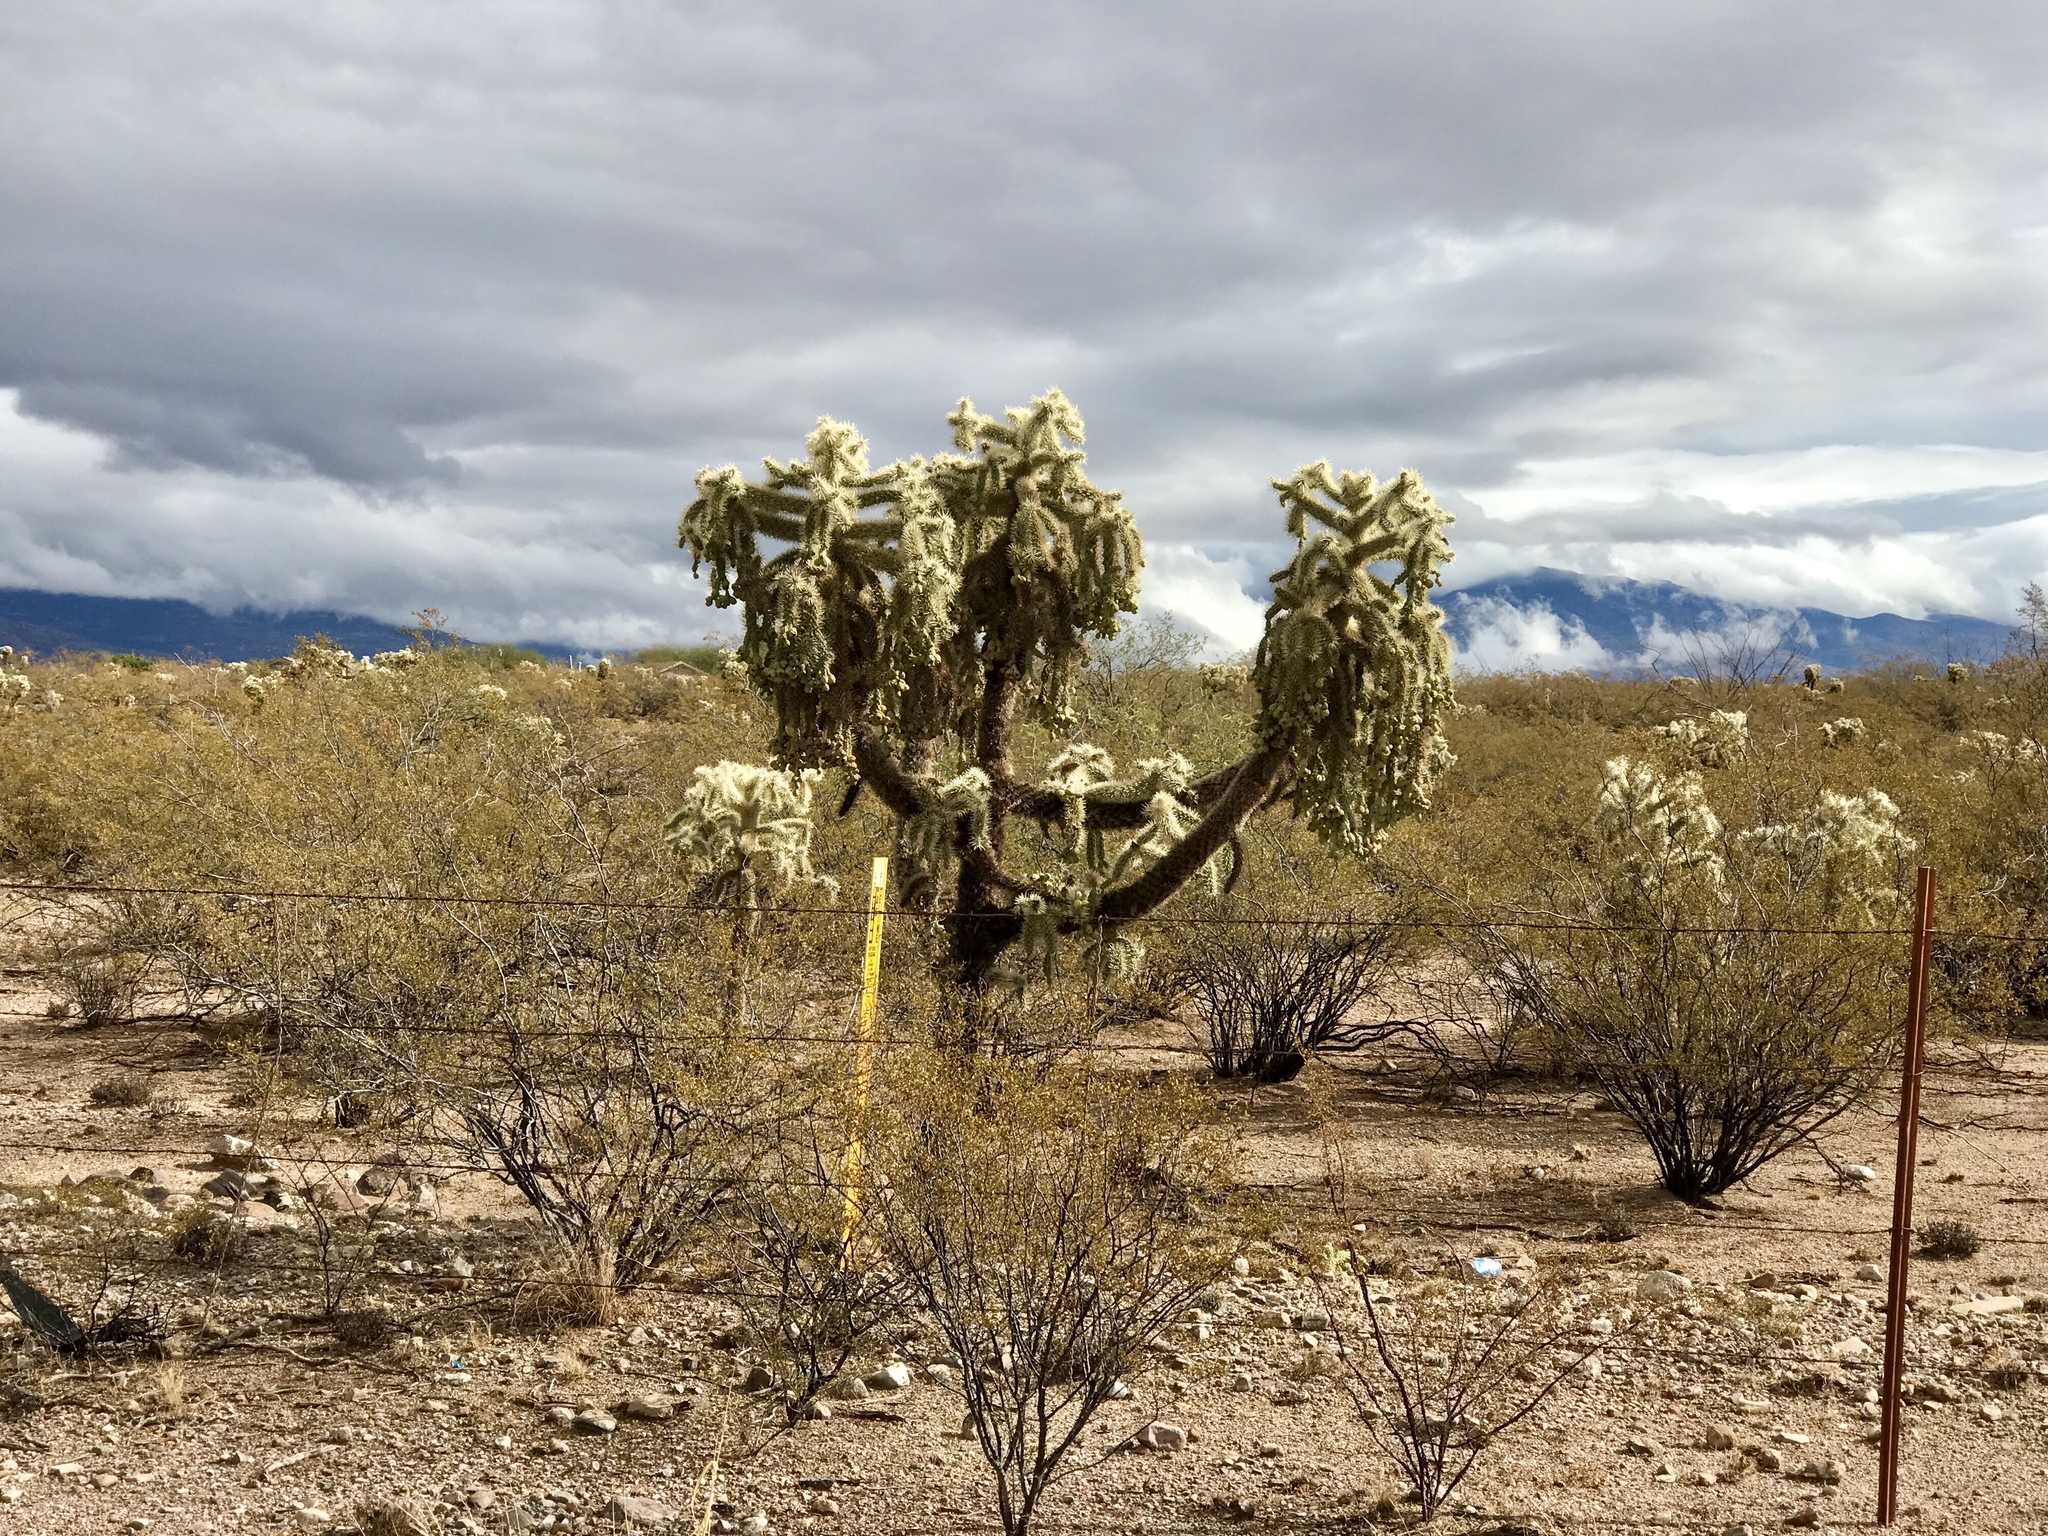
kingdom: Plantae
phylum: Tracheophyta
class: Magnoliopsida
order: Caryophyllales
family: Cactaceae
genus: Cylindropuntia
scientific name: Cylindropuntia fulgida
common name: Jumping cholla
